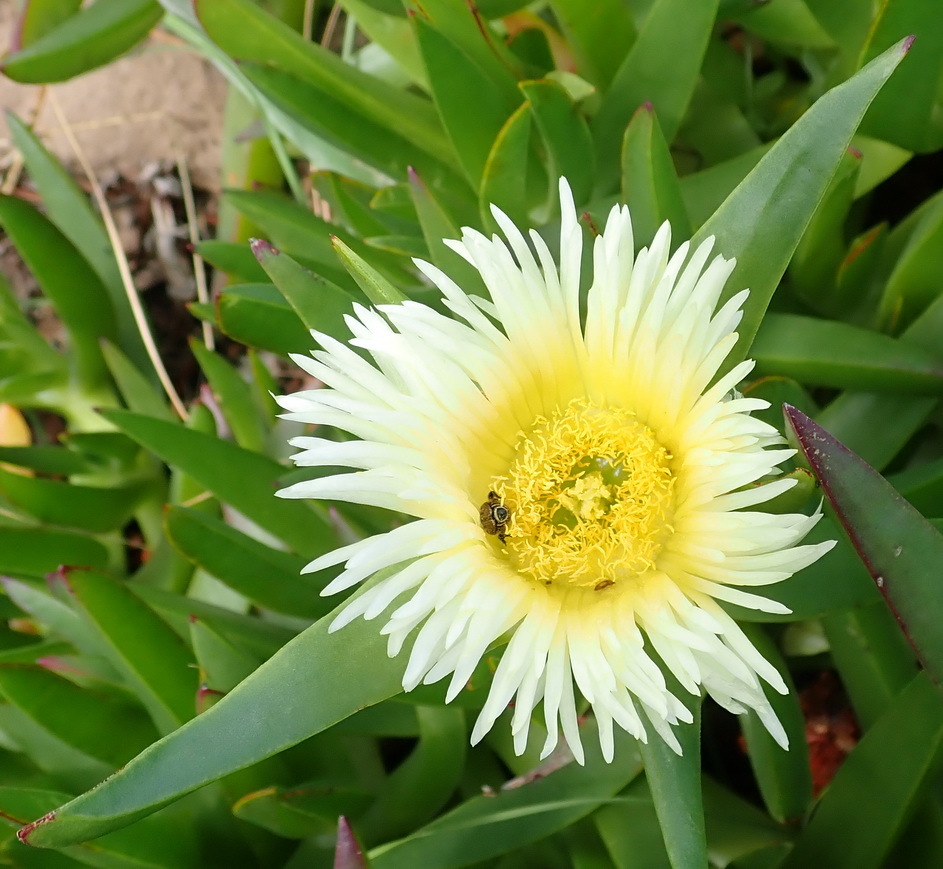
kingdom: Plantae
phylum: Tracheophyta
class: Magnoliopsida
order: Caryophyllales
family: Aizoaceae
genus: Carpobrotus
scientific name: Carpobrotus edulis
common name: Hottentot-fig
